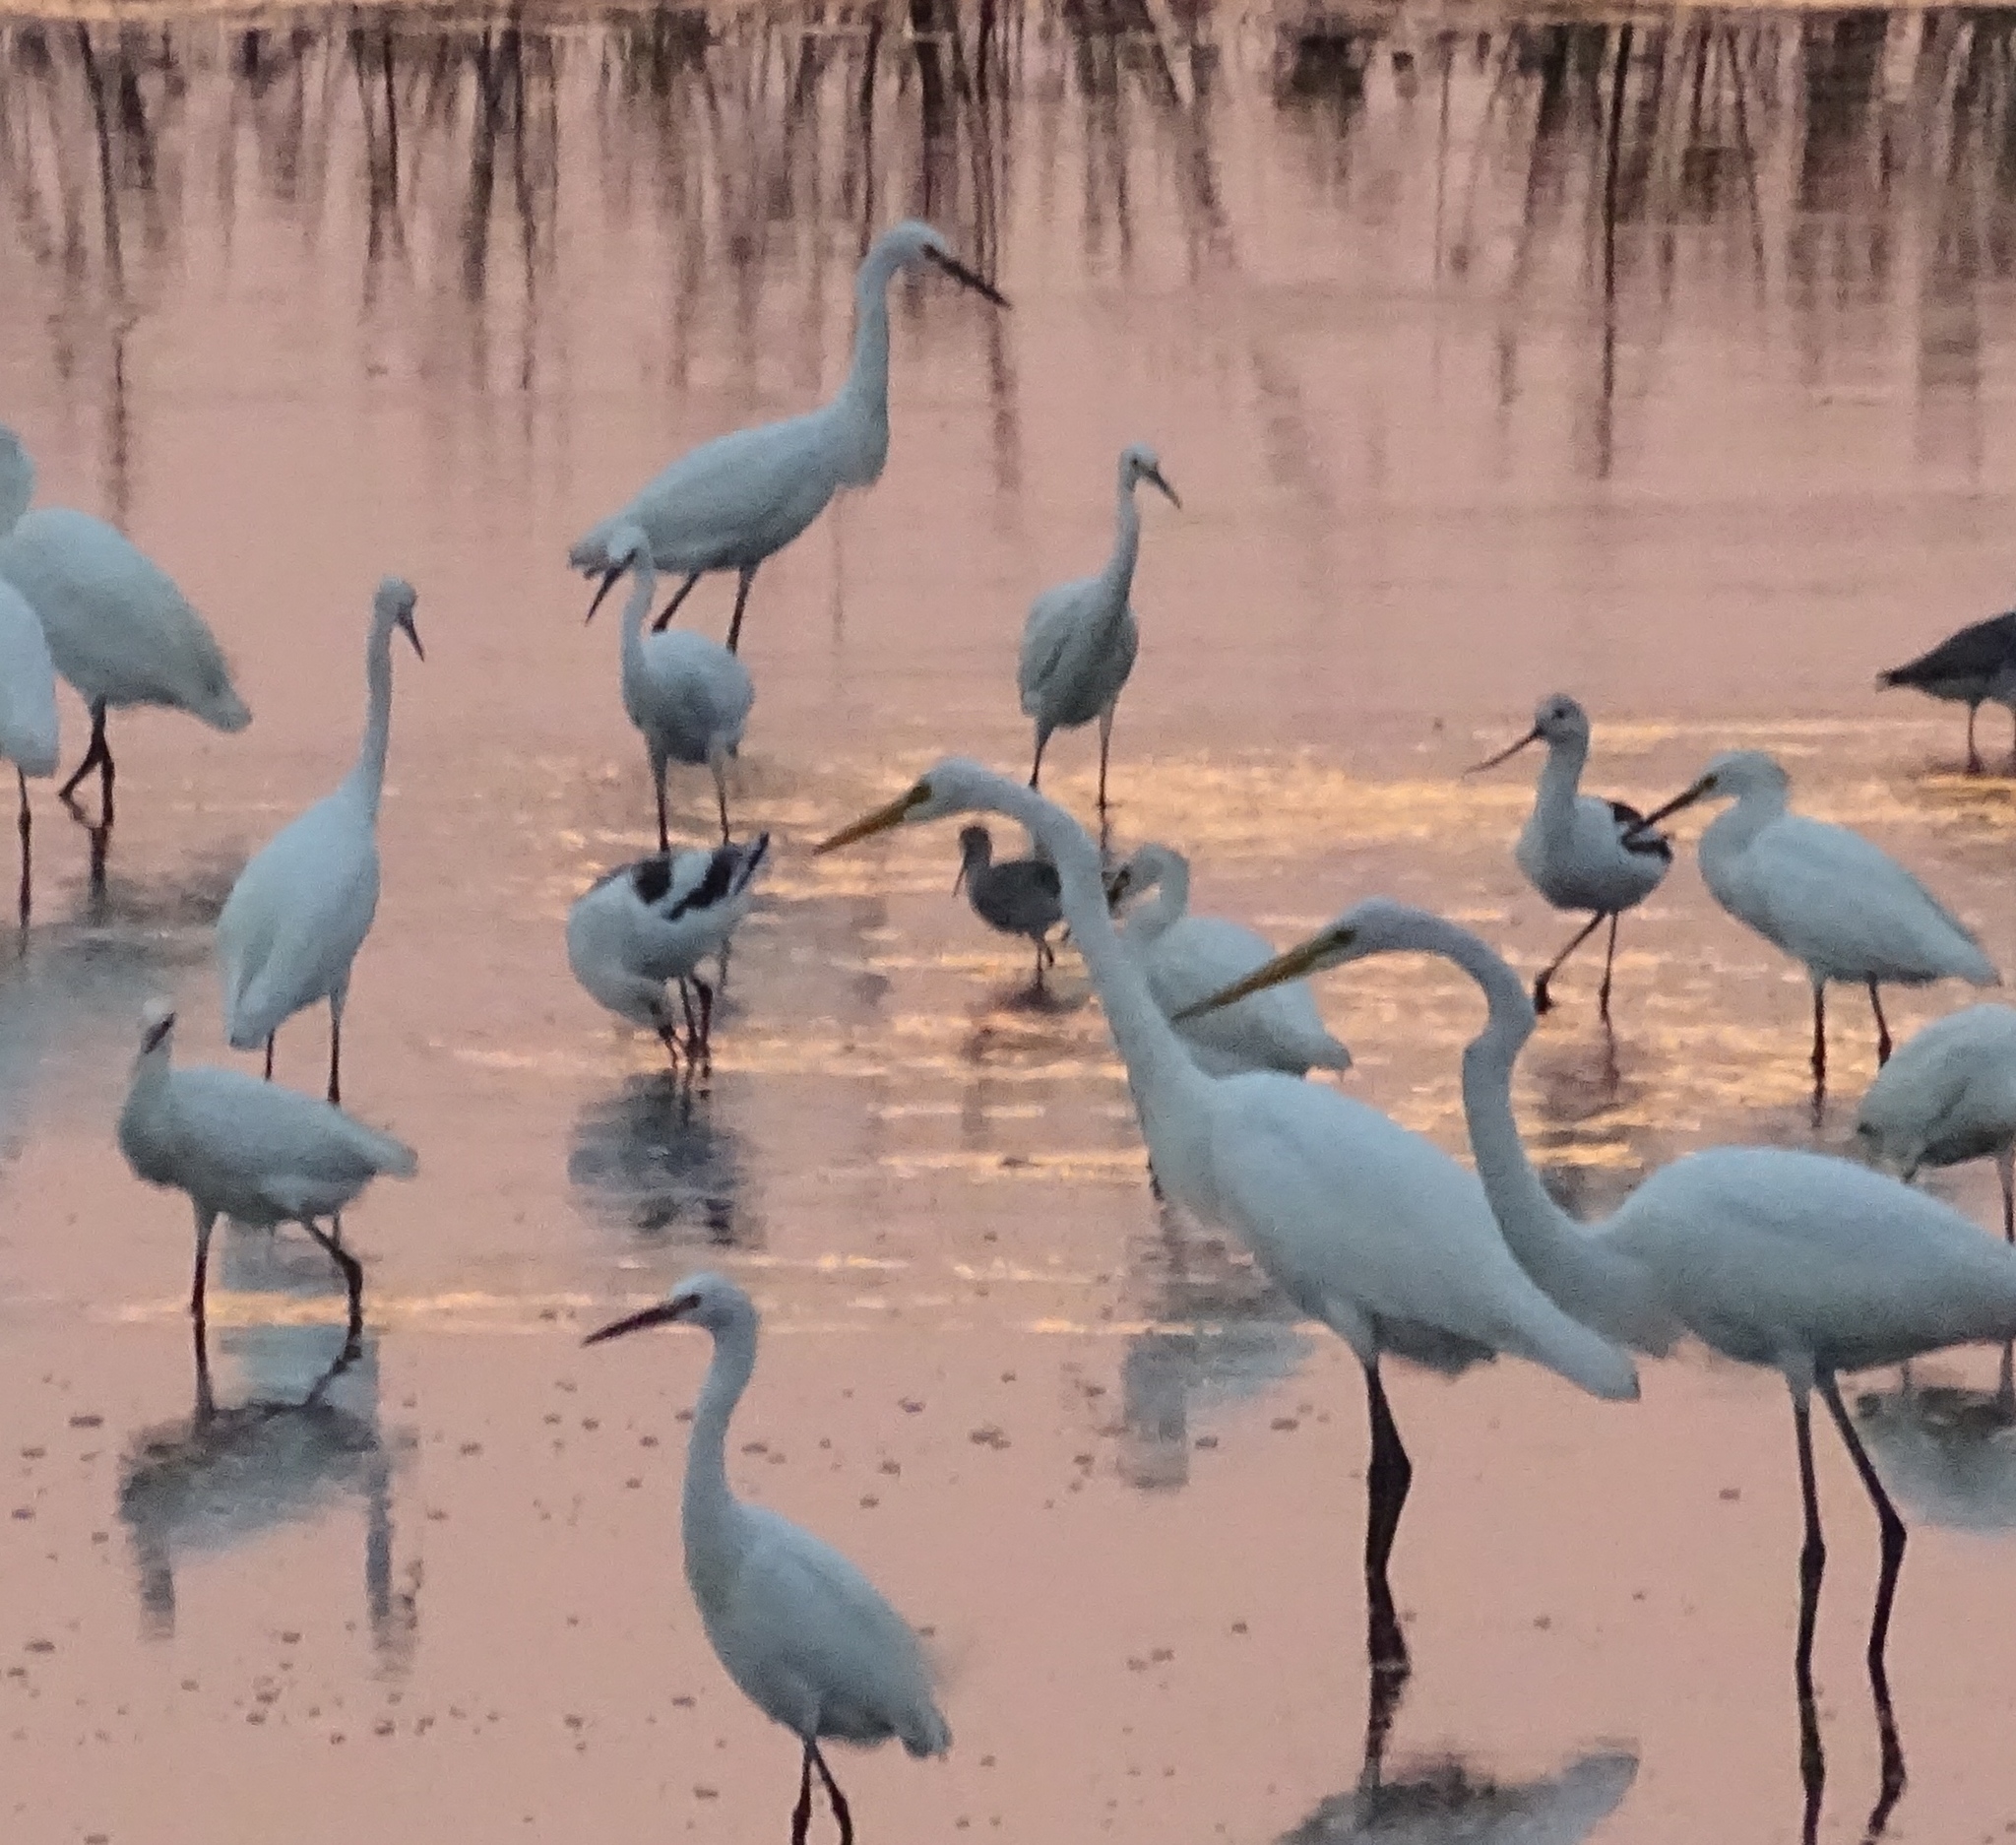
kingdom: Animalia
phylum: Chordata
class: Aves
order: Charadriiformes
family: Recurvirostridae
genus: Recurvirostra
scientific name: Recurvirostra americana
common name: American avocet
